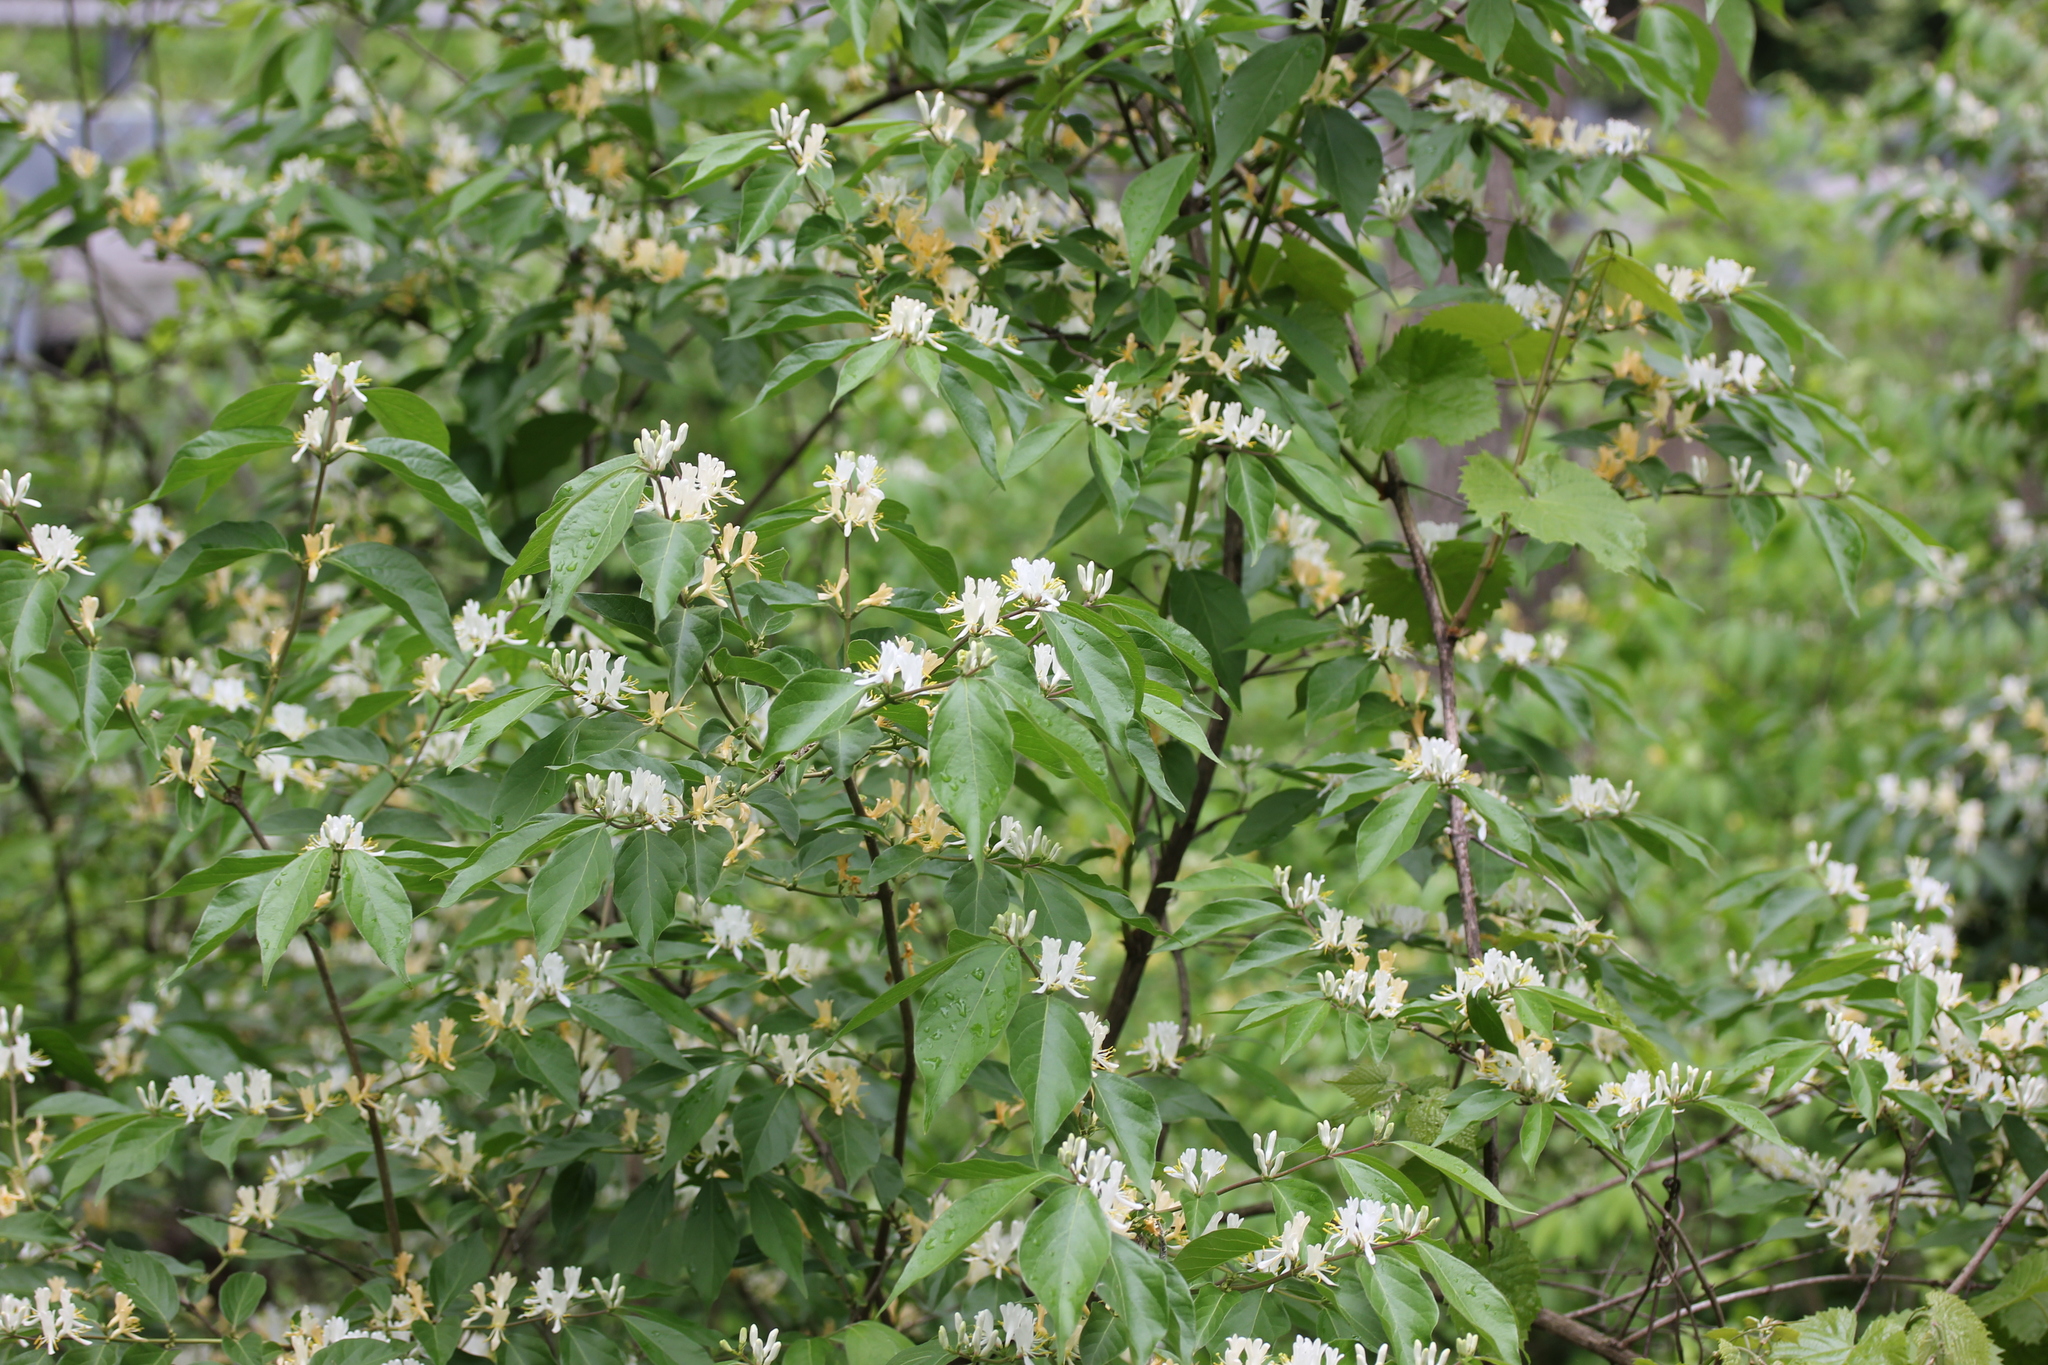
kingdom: Plantae
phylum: Tracheophyta
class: Magnoliopsida
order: Dipsacales
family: Caprifoliaceae
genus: Lonicera
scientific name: Lonicera maackii
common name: Amur honeysuckle
